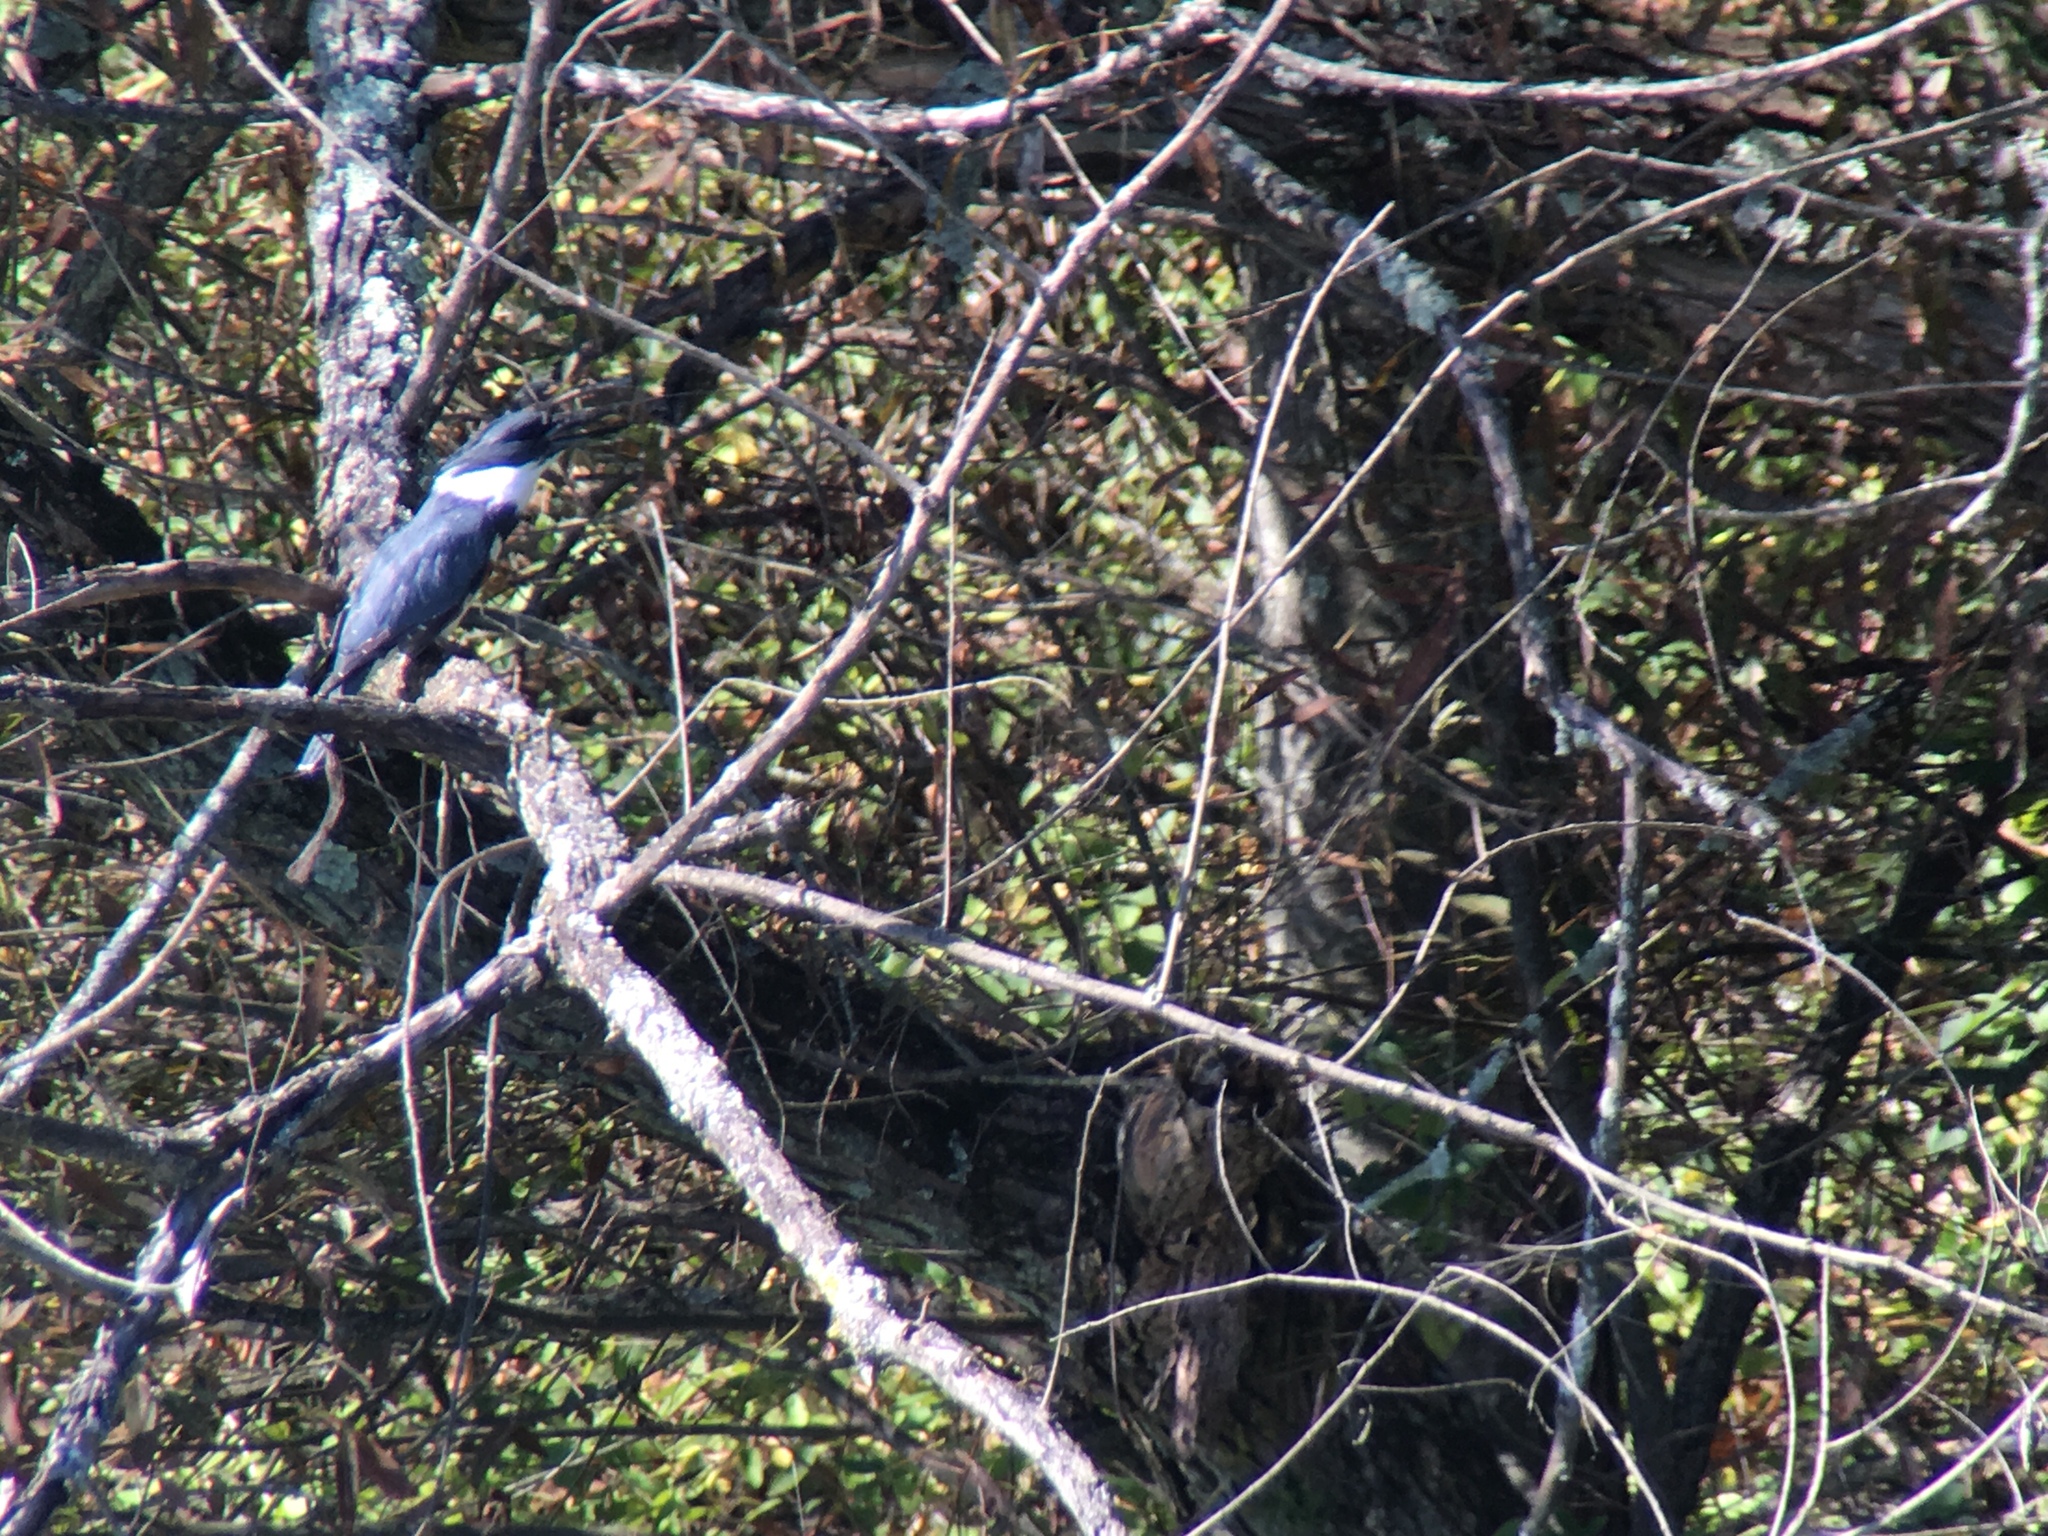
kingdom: Animalia
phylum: Chordata
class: Aves
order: Coraciiformes
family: Alcedinidae
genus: Megaceryle
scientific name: Megaceryle alcyon
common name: Belted kingfisher
